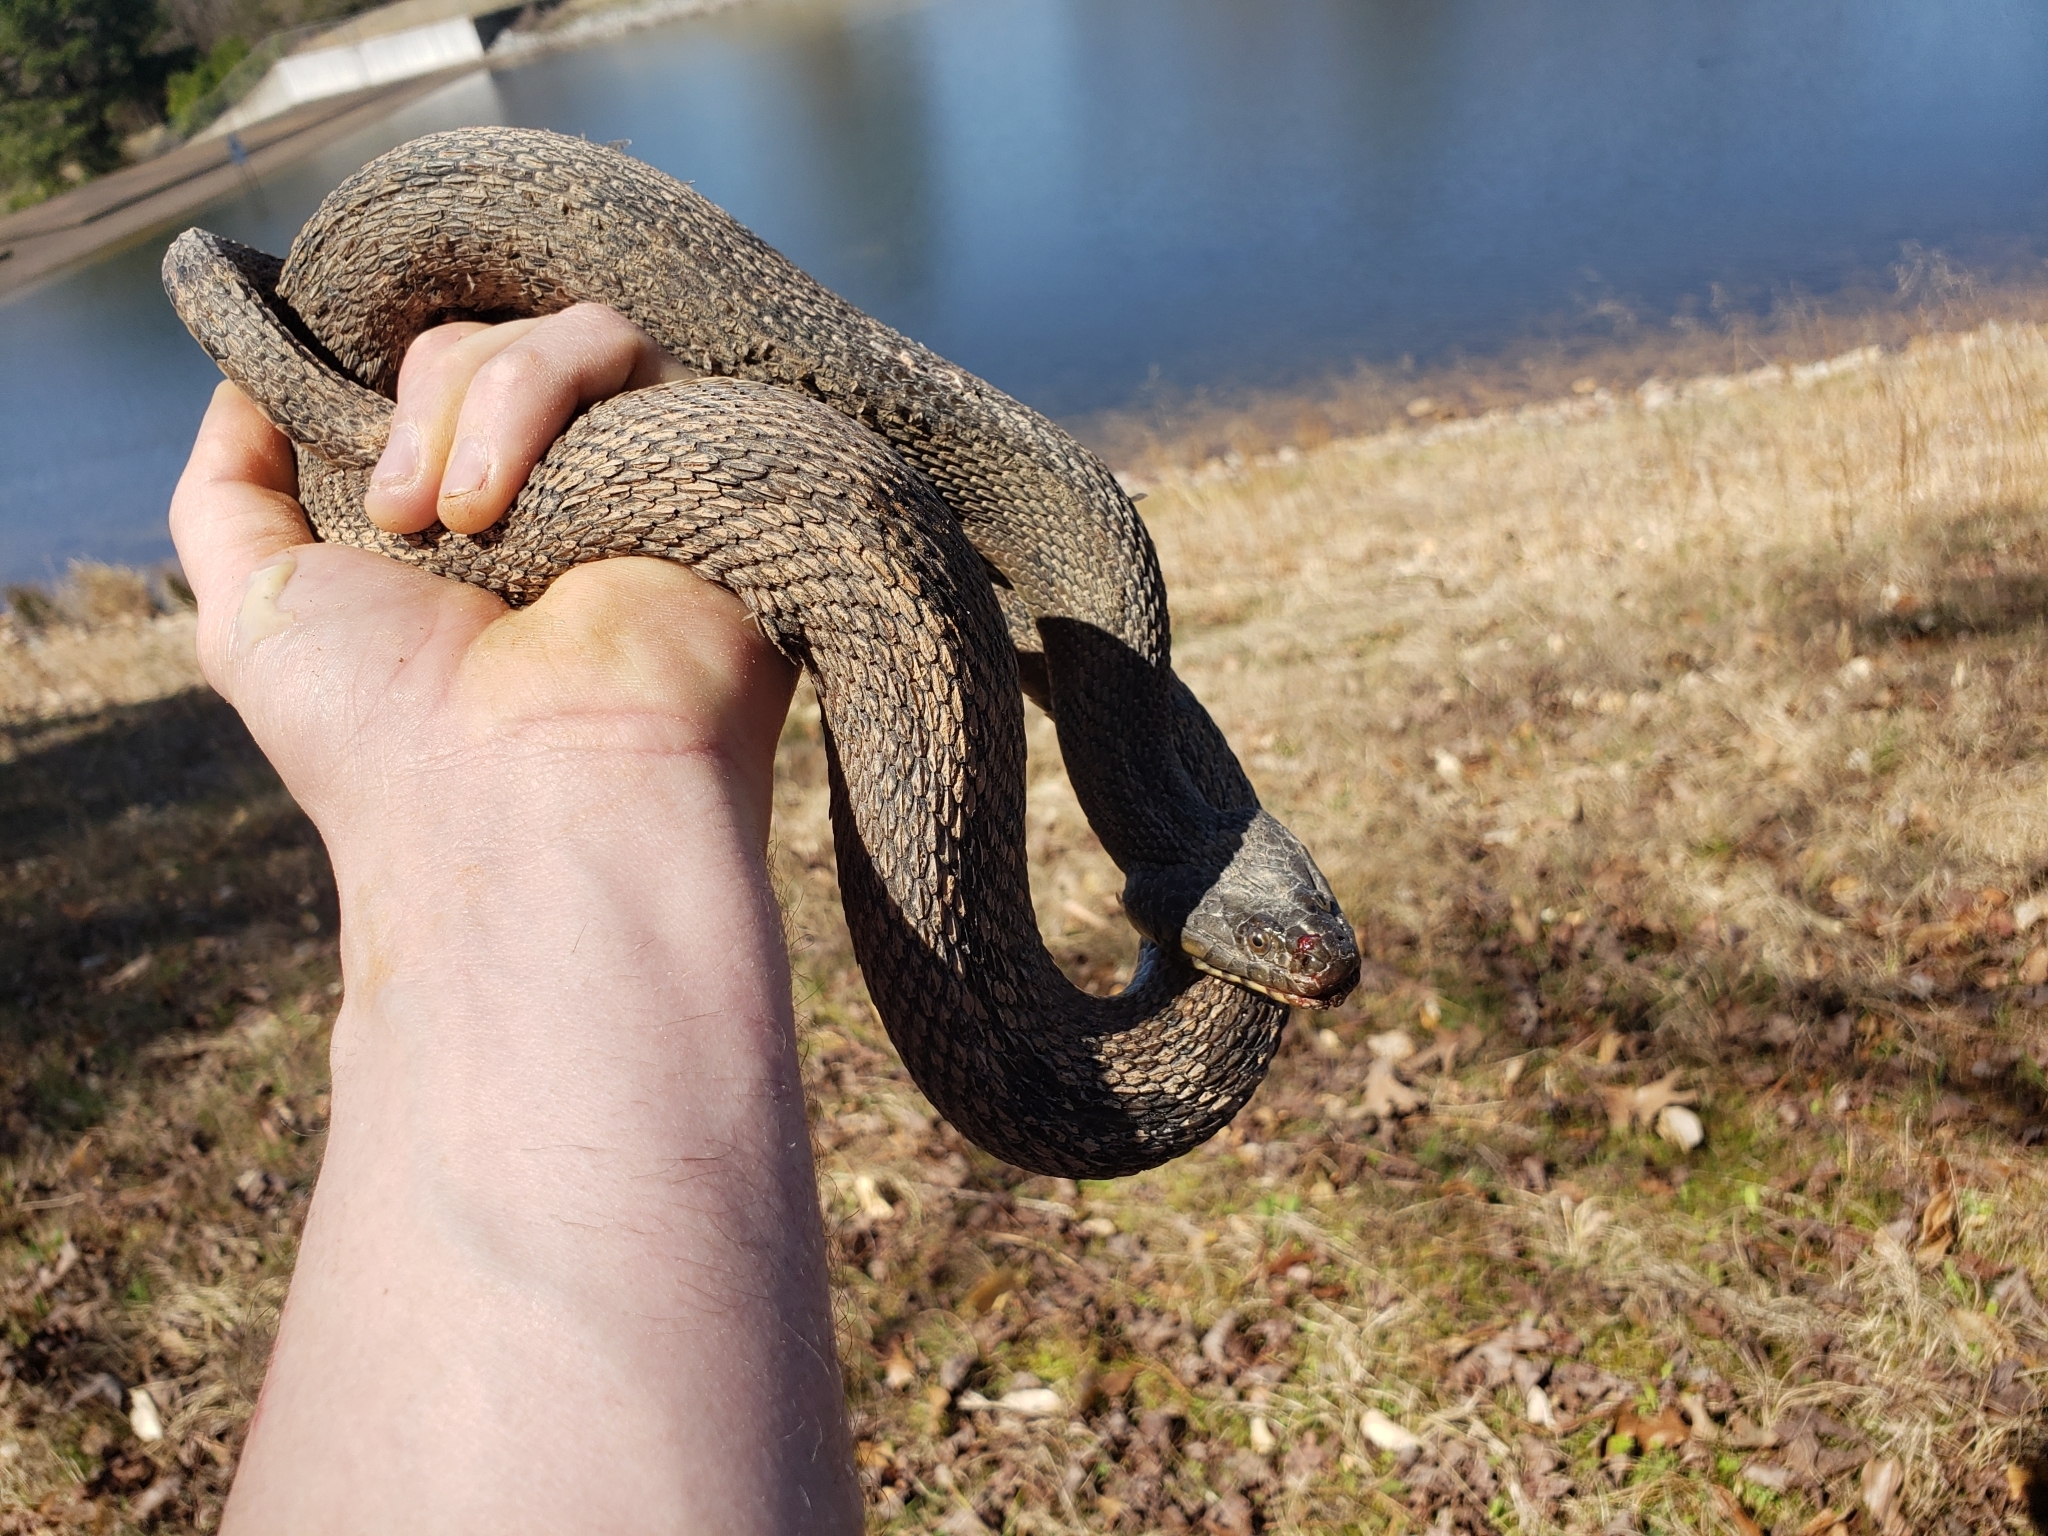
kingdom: Animalia
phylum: Chordata
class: Squamata
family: Colubridae
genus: Nerodia
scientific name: Nerodia rhombifer
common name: Diamondback water snake
